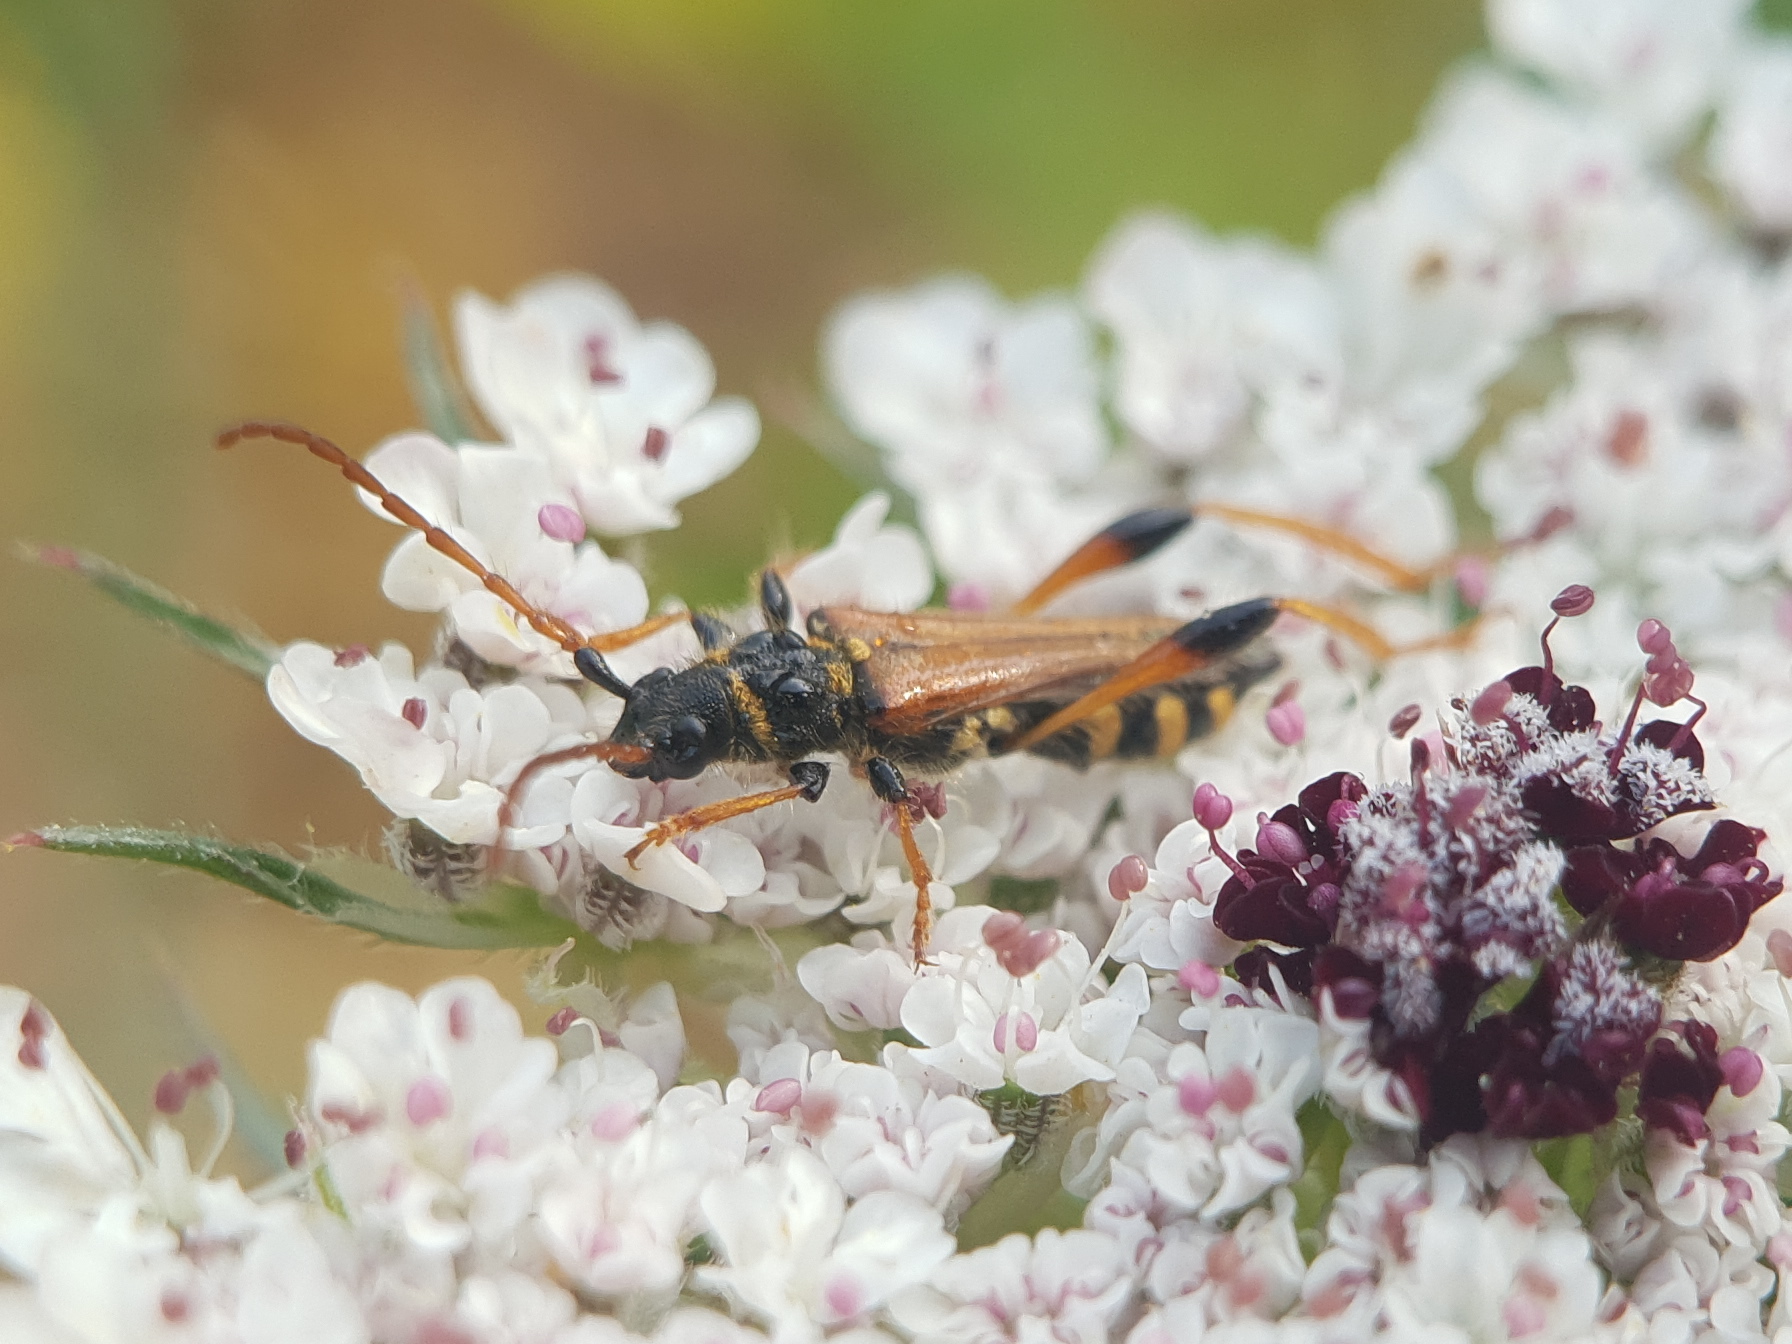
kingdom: Animalia
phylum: Arthropoda
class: Insecta
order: Coleoptera
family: Cerambycidae
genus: Stenopterus
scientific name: Stenopterus rufus
